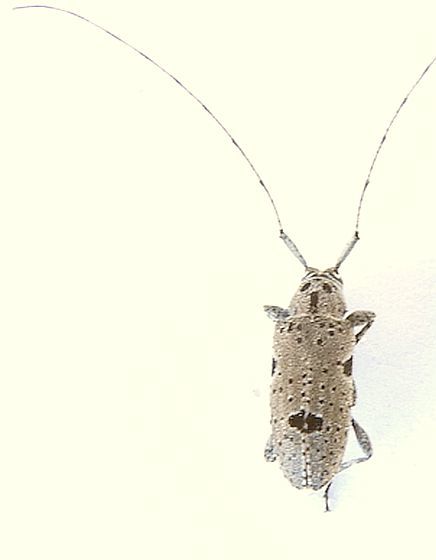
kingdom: Animalia
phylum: Arthropoda
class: Insecta
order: Coleoptera
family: Cerambycidae
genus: Sternidius
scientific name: Sternidius imitans
